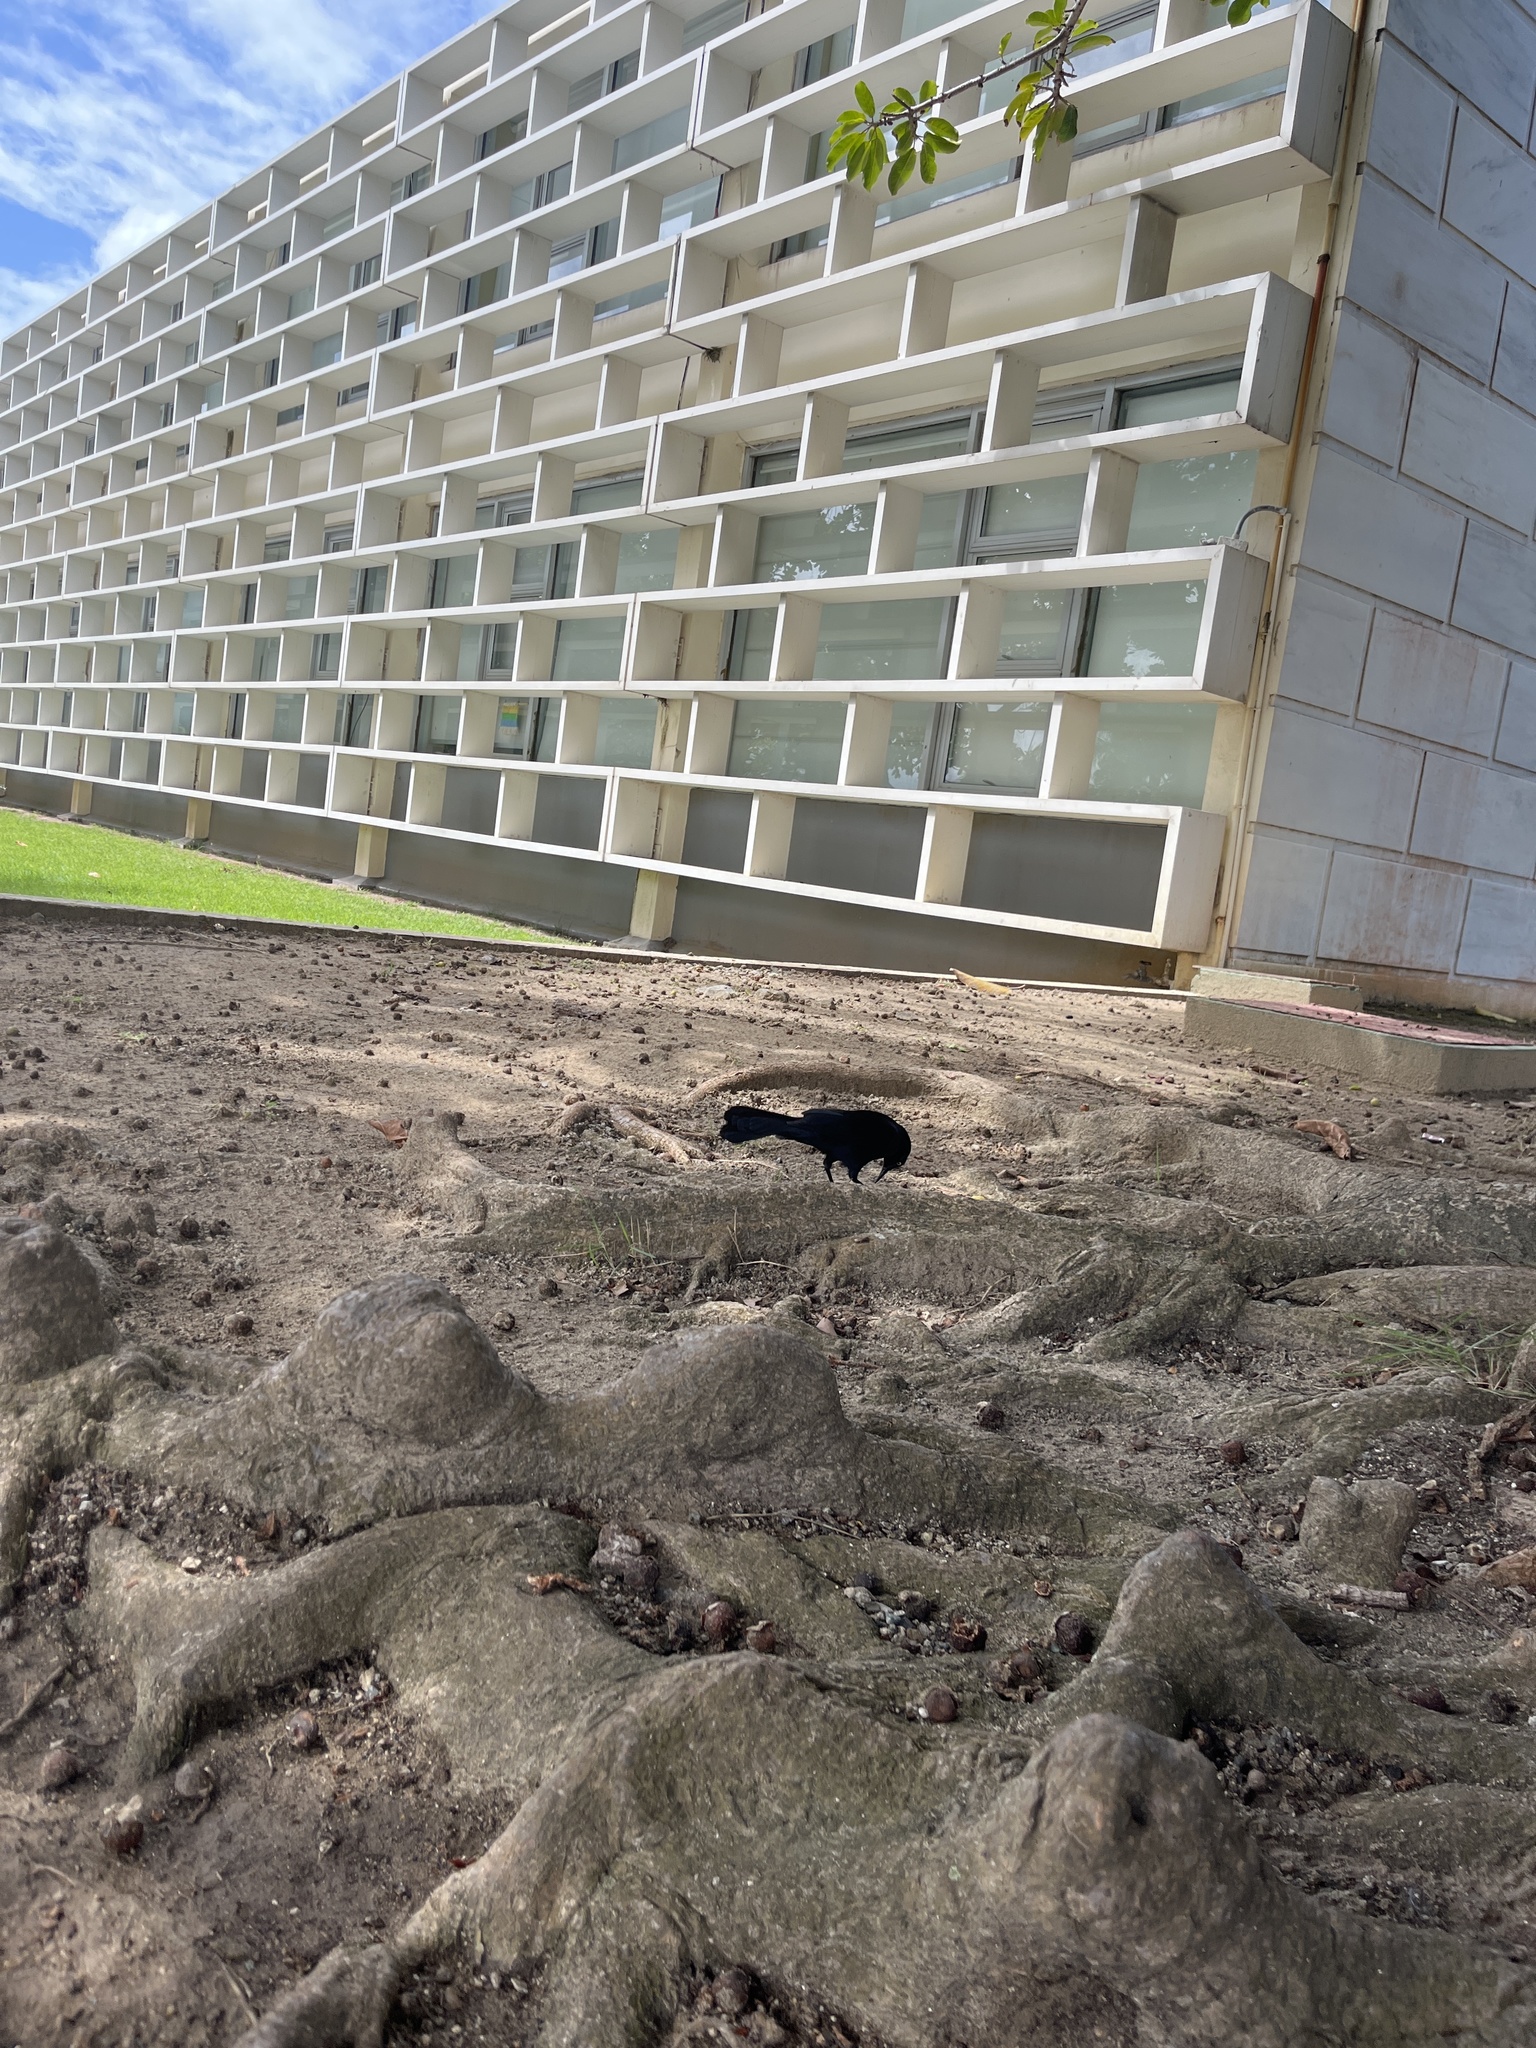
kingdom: Animalia
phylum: Chordata
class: Aves
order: Passeriformes
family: Icteridae
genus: Quiscalus
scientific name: Quiscalus niger
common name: Greater antillean grackle
